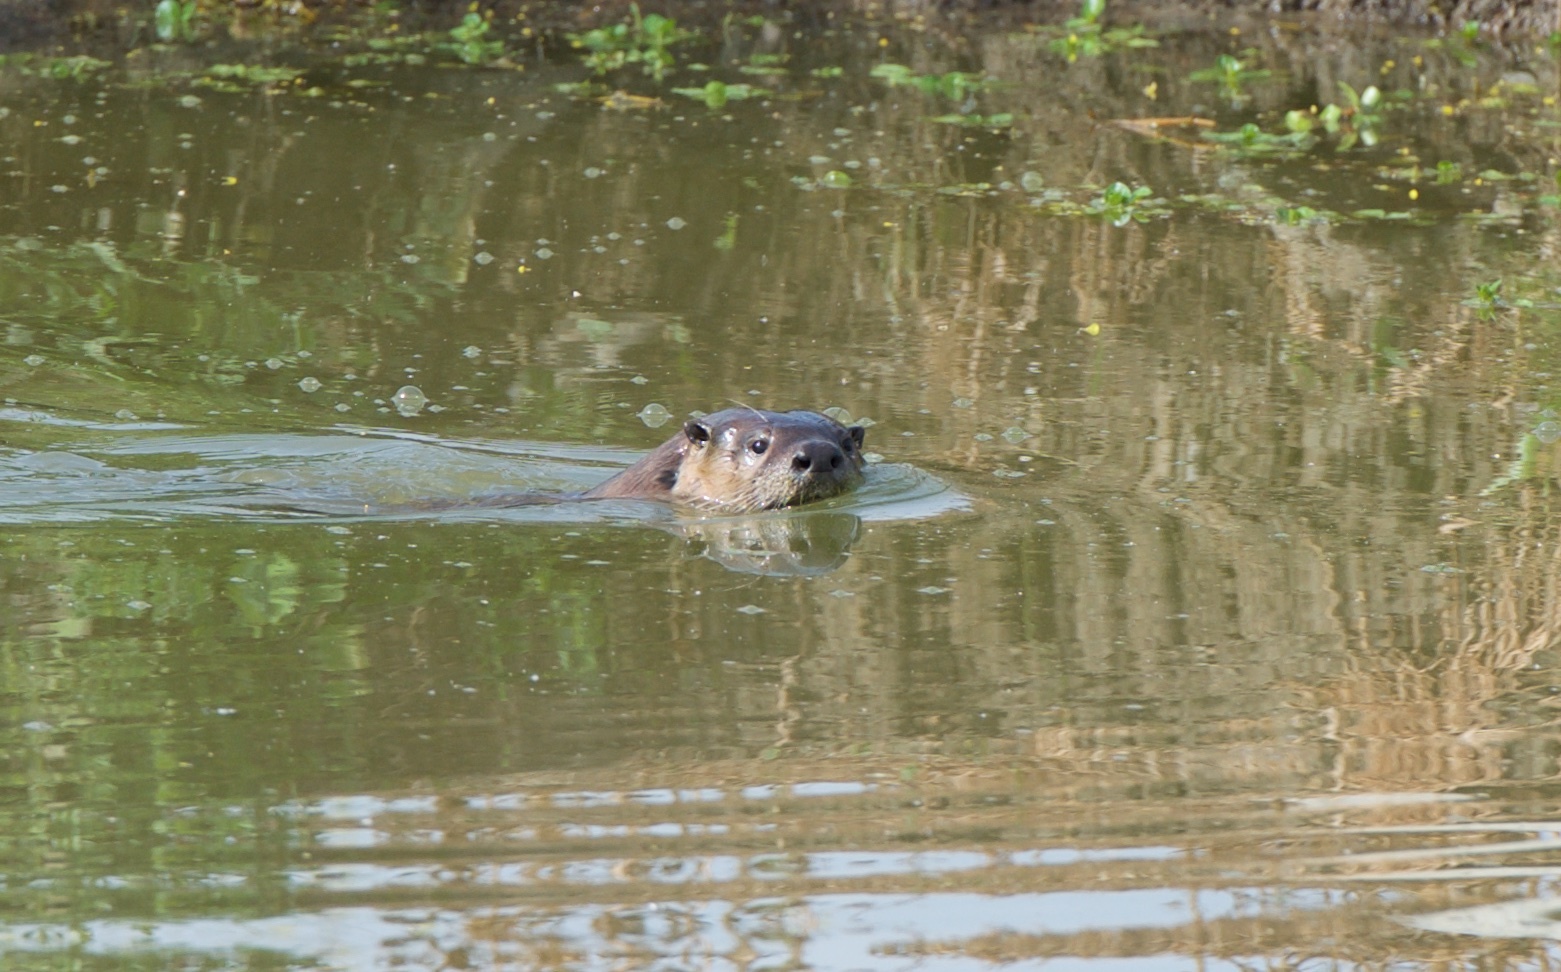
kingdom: Animalia
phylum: Chordata
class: Mammalia
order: Carnivora
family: Mustelidae
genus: Lontra
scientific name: Lontra canadensis
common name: North american river otter
